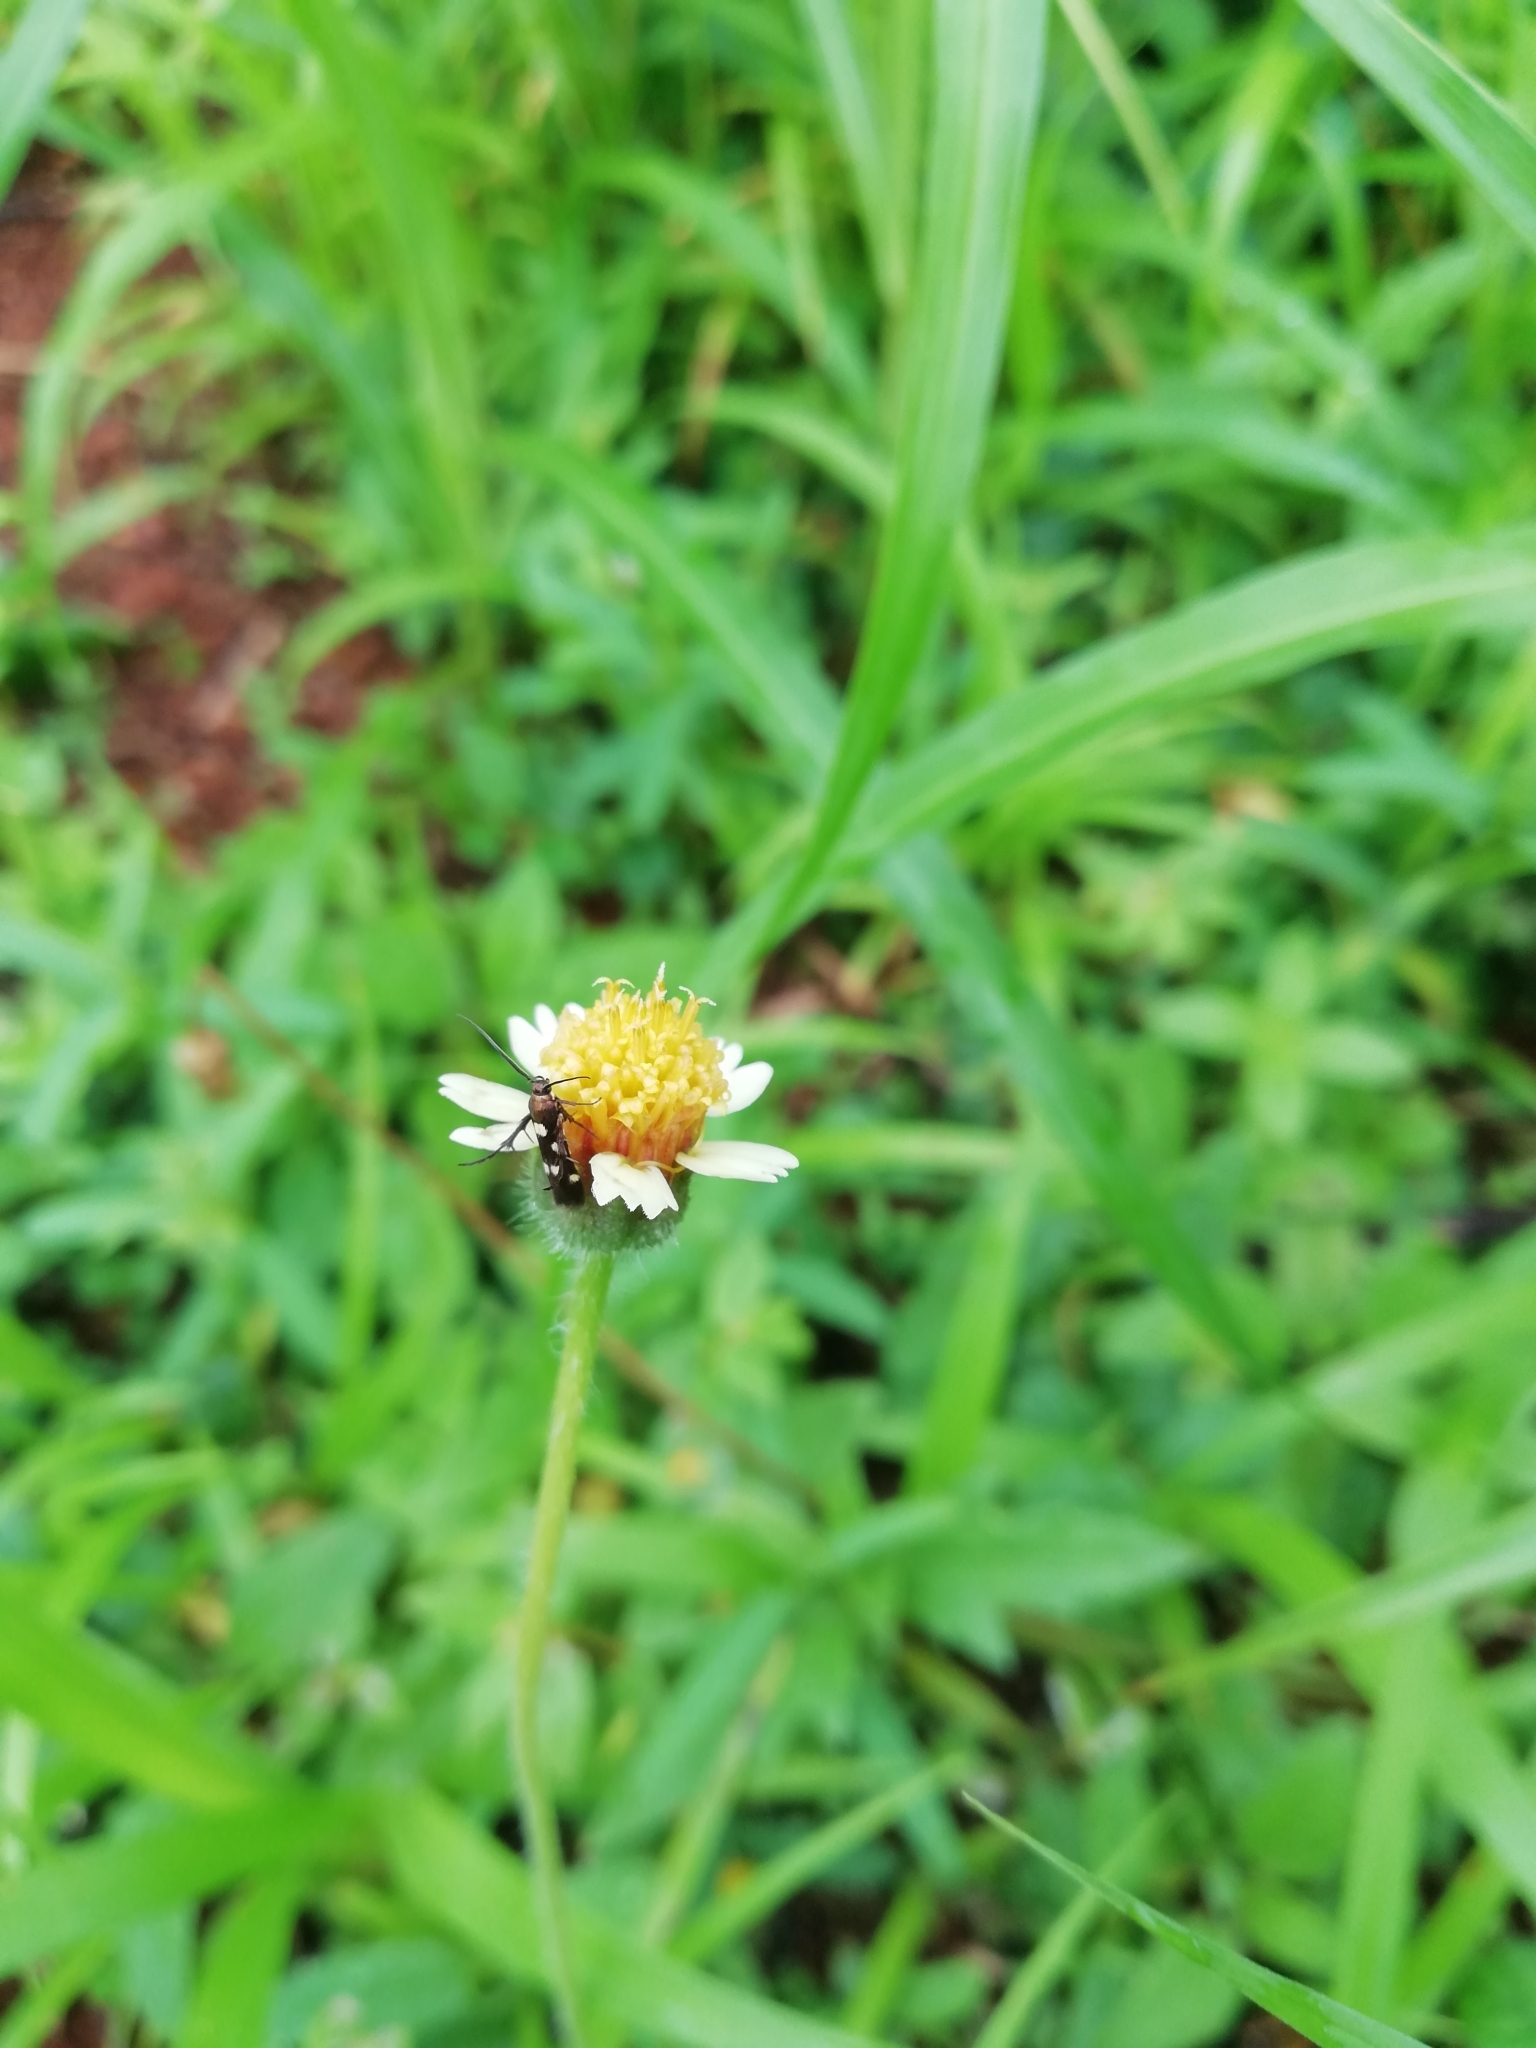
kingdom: Plantae
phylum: Tracheophyta
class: Magnoliopsida
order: Asterales
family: Asteraceae
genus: Tridax
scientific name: Tridax procumbens
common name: Coatbuttons
